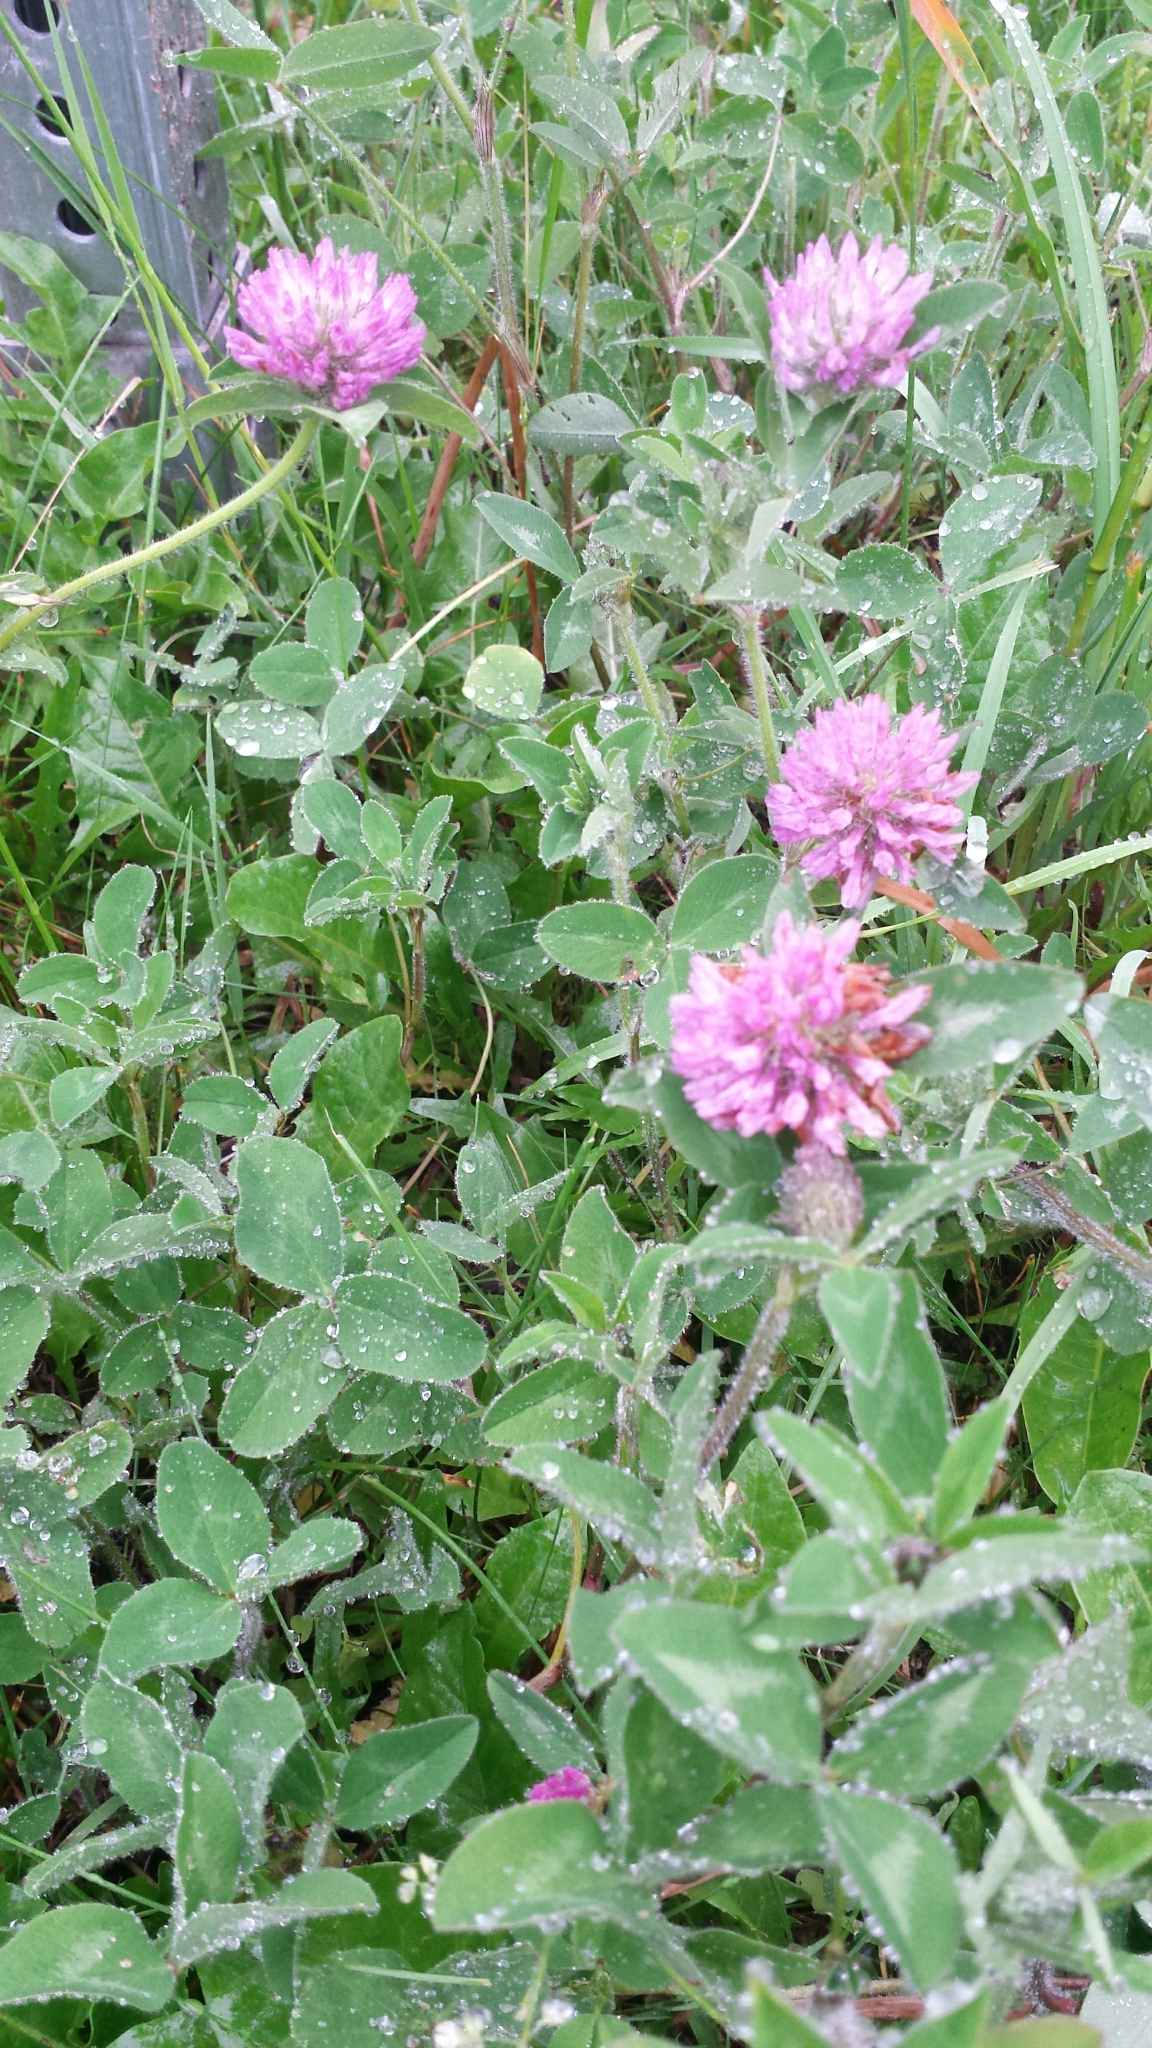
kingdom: Plantae
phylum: Tracheophyta
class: Magnoliopsida
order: Fabales
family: Fabaceae
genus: Trifolium
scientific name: Trifolium pratense
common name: Red clover
